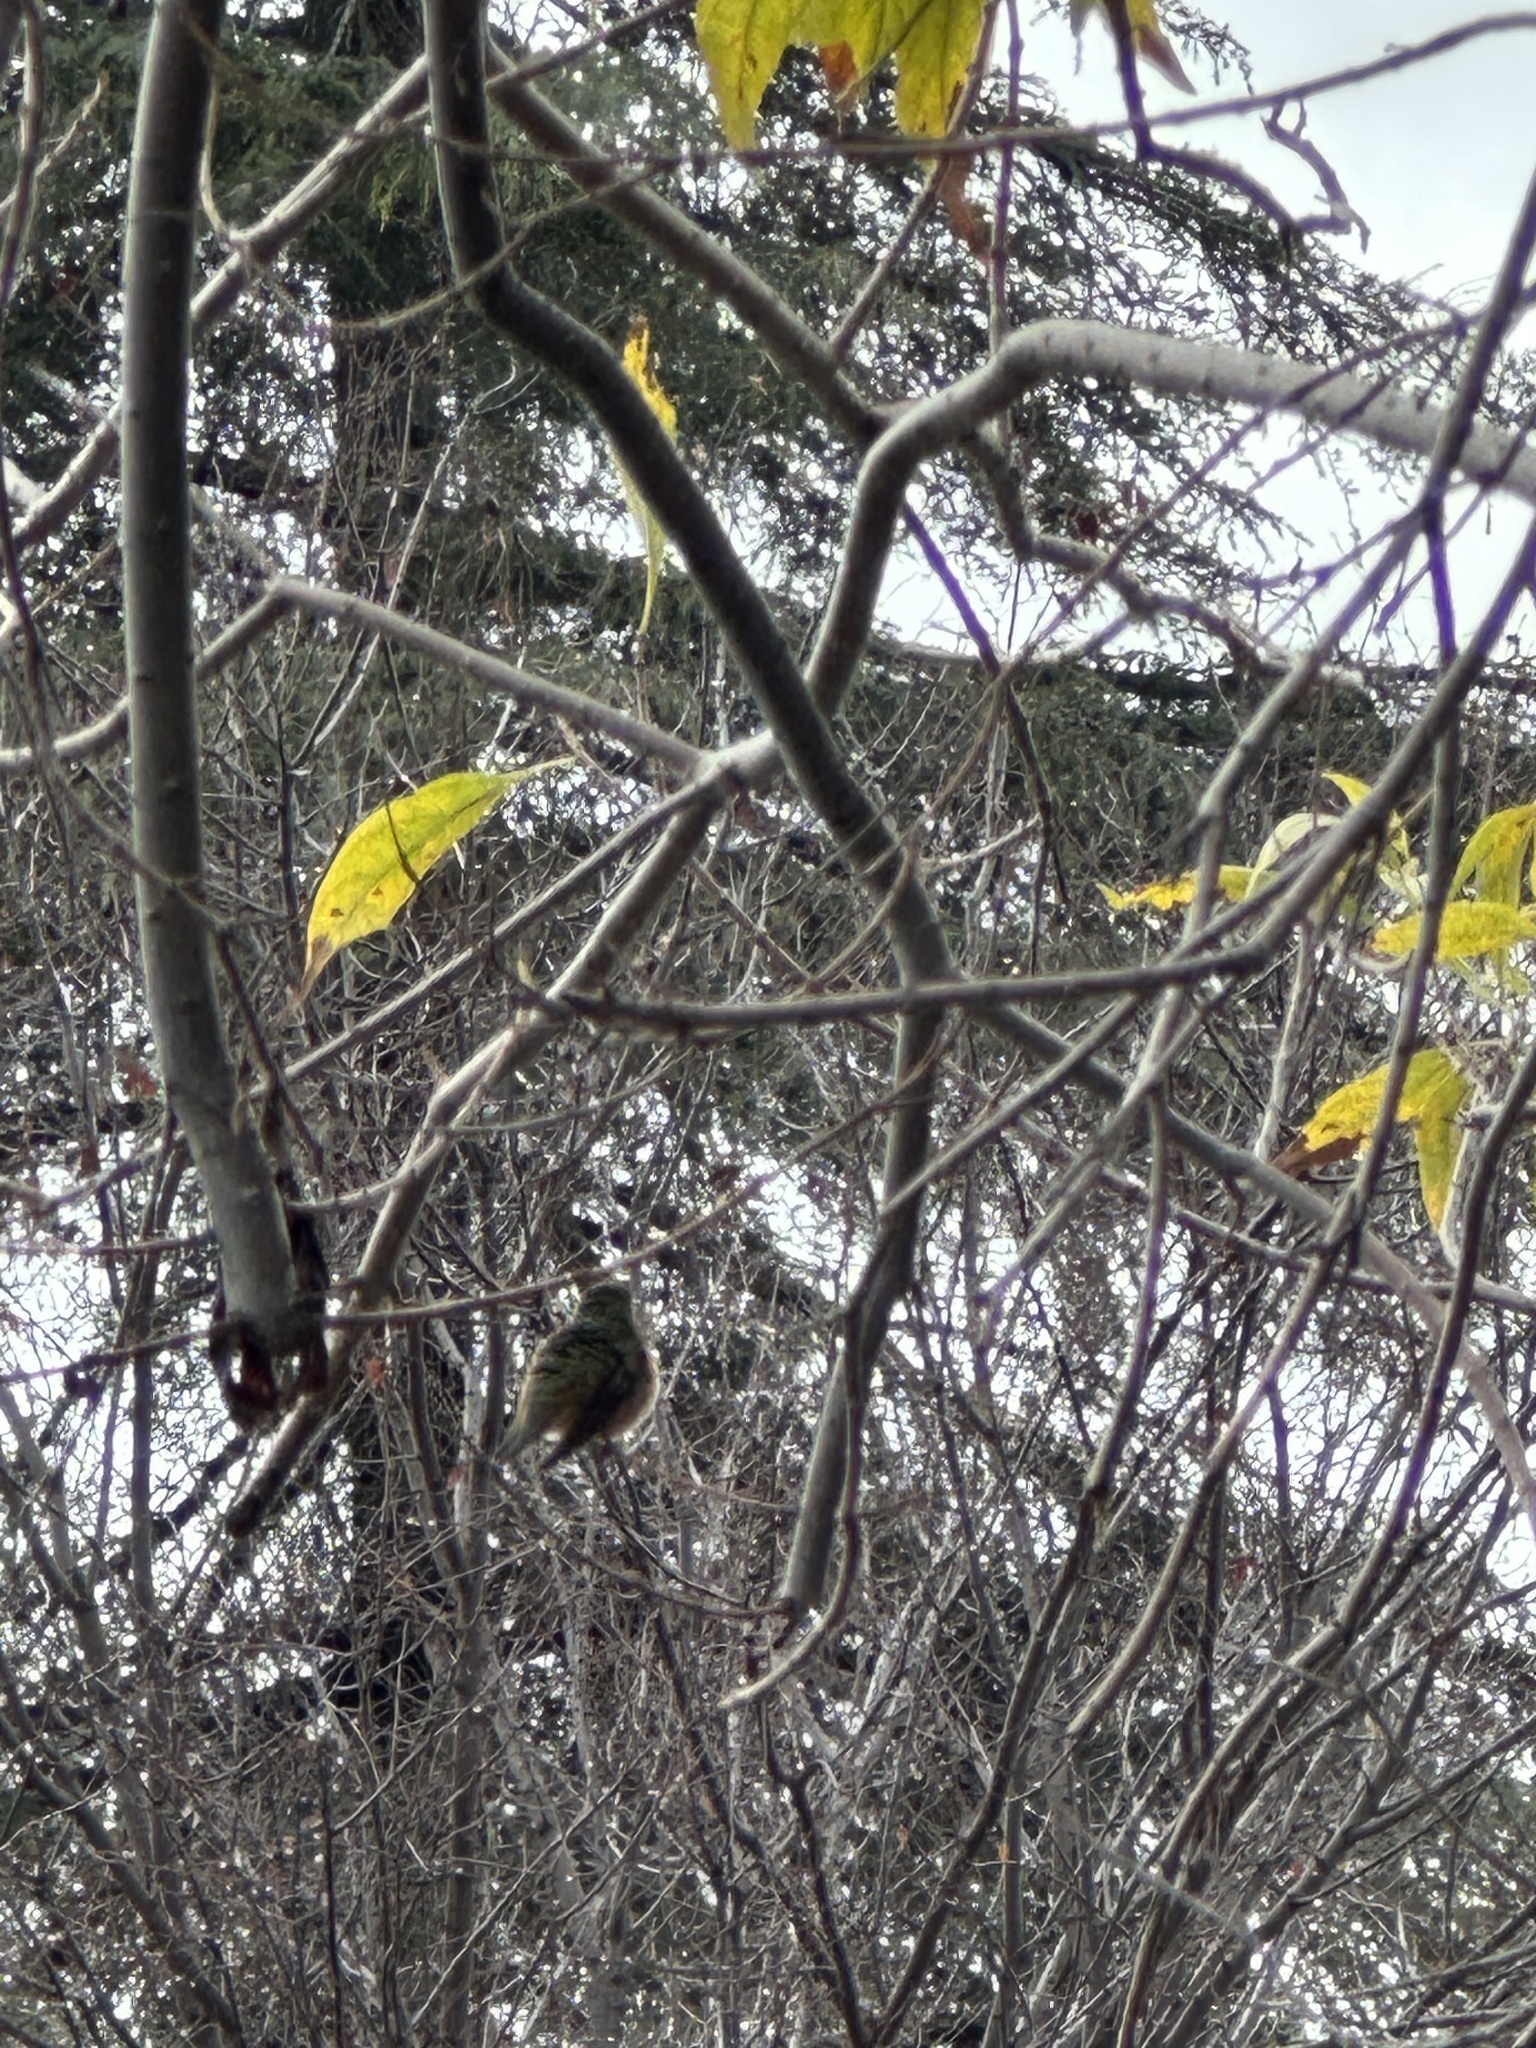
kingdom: Animalia
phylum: Chordata
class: Aves
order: Apodiformes
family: Trochilidae
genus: Selasphorus
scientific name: Selasphorus sasin
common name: Allen's hummingbird
